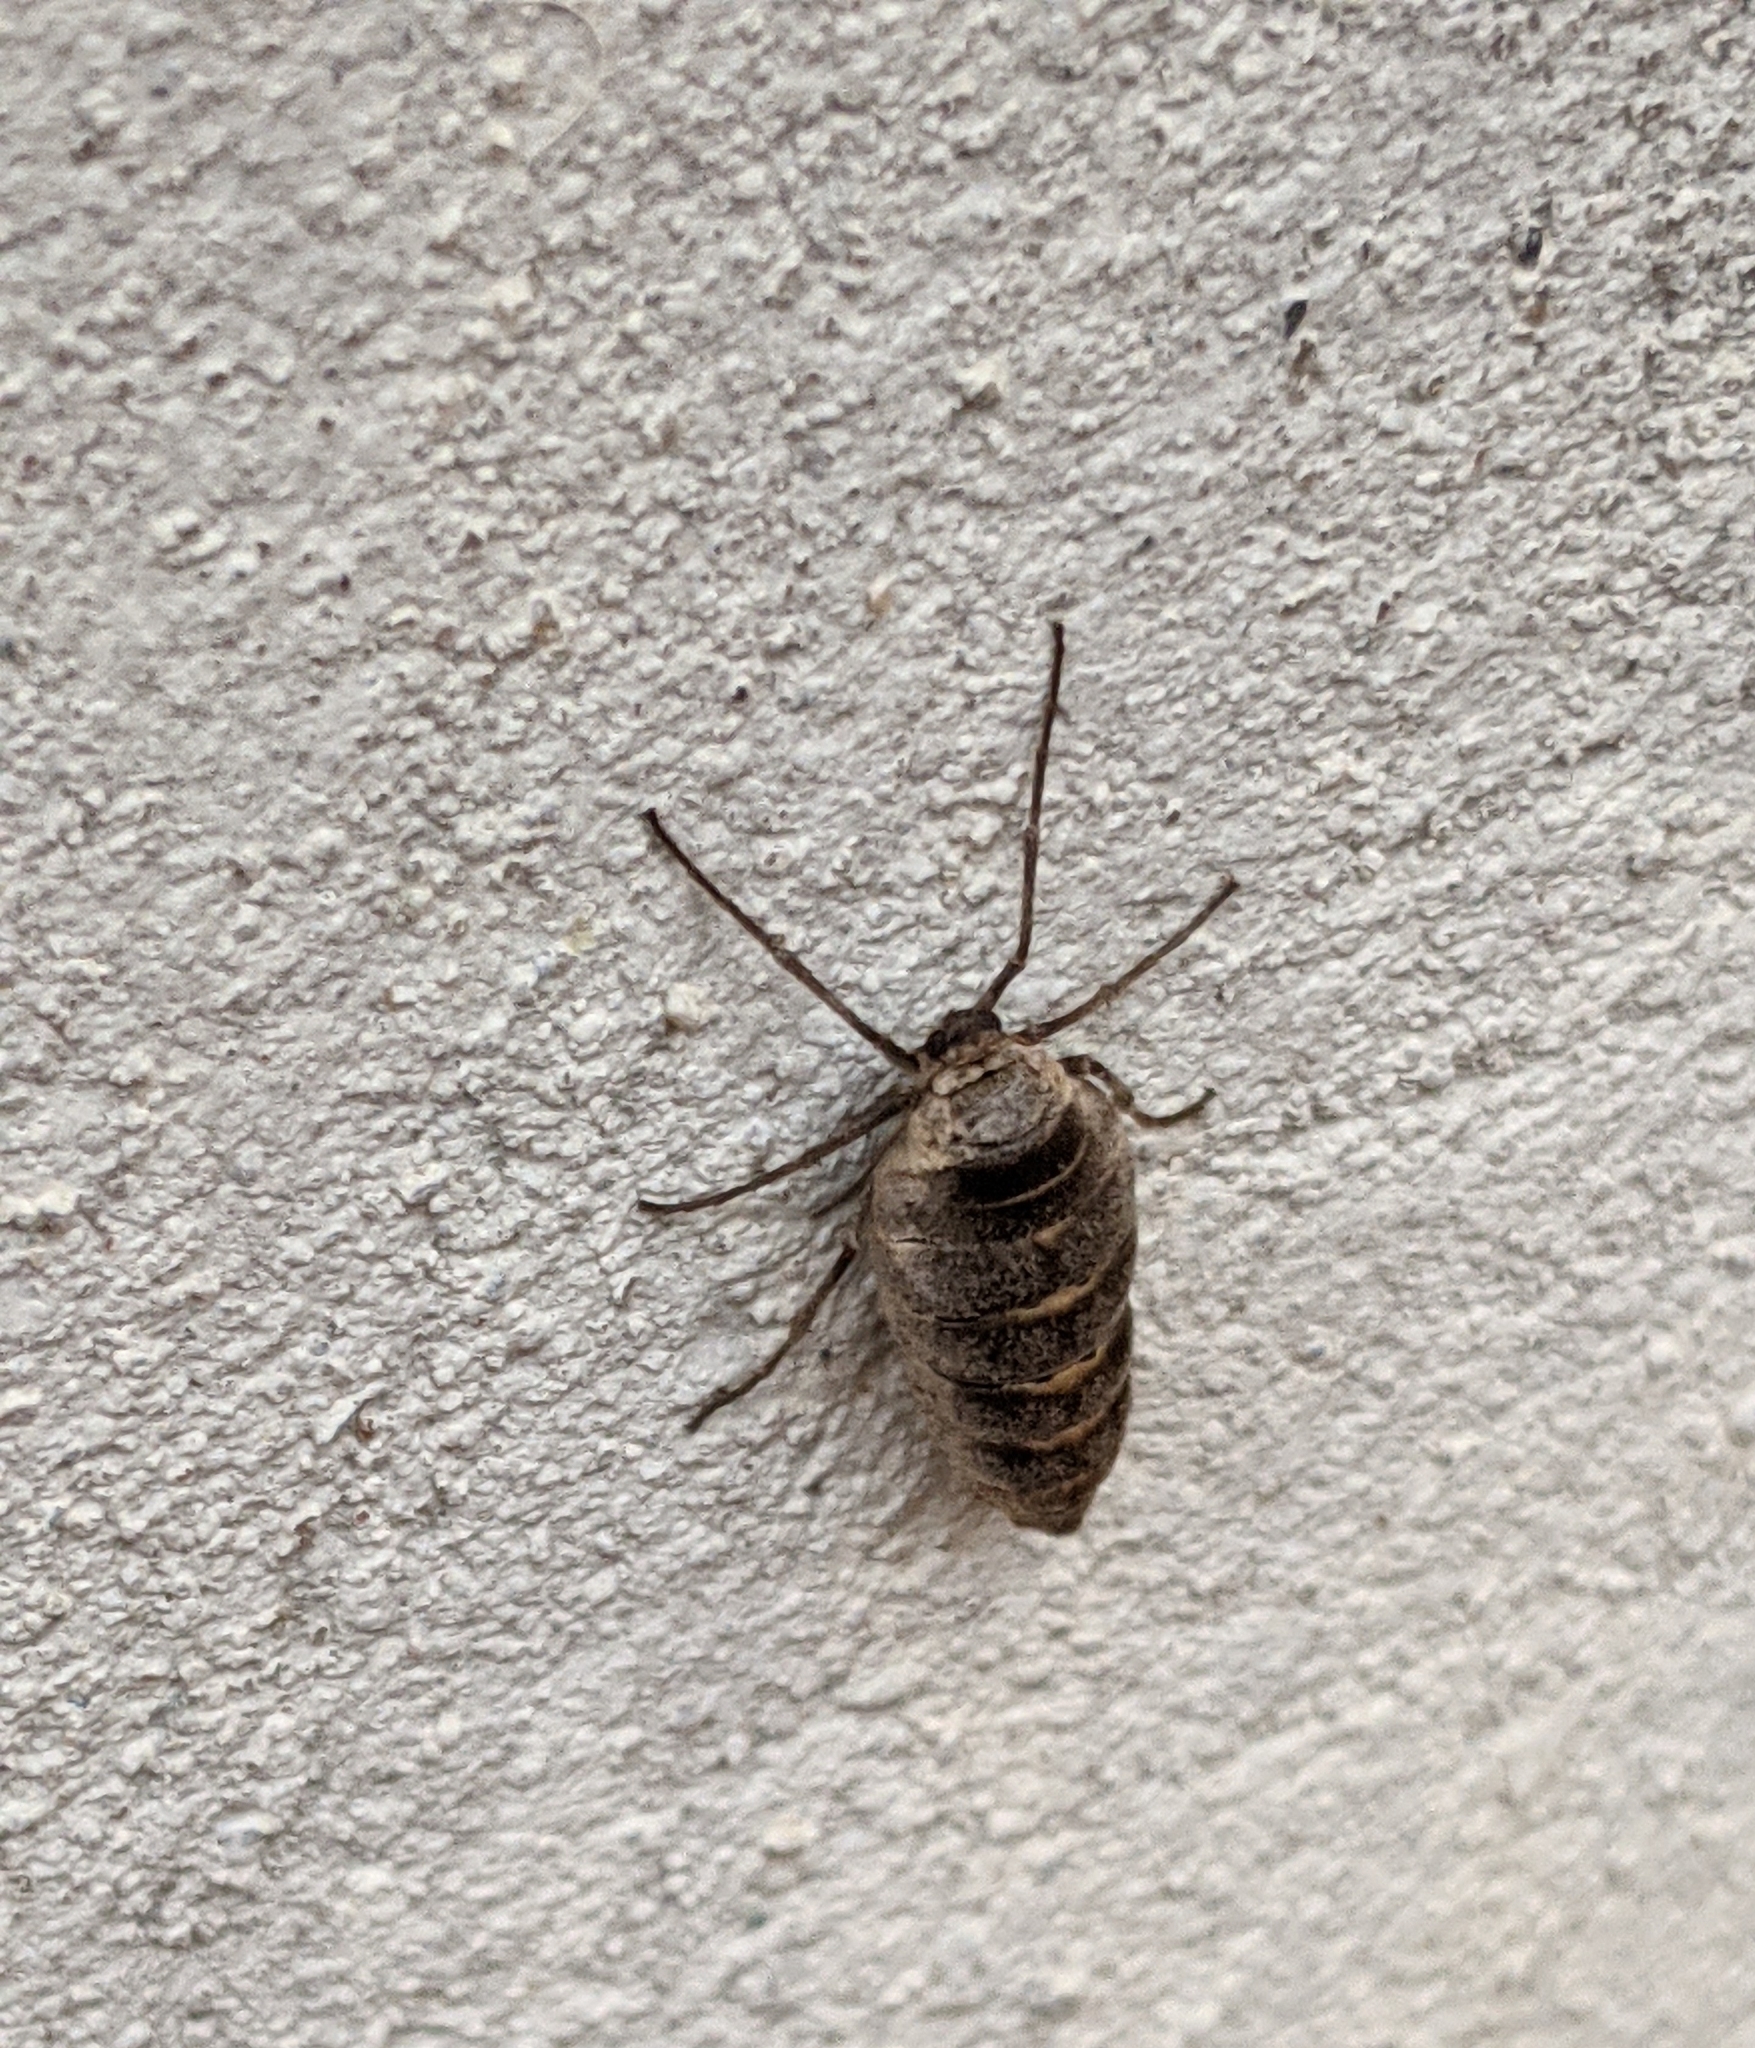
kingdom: Animalia
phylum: Arthropoda
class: Insecta
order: Lepidoptera
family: Geometridae
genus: Alsophila
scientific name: Alsophila pometaria
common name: Fall cankerworm
